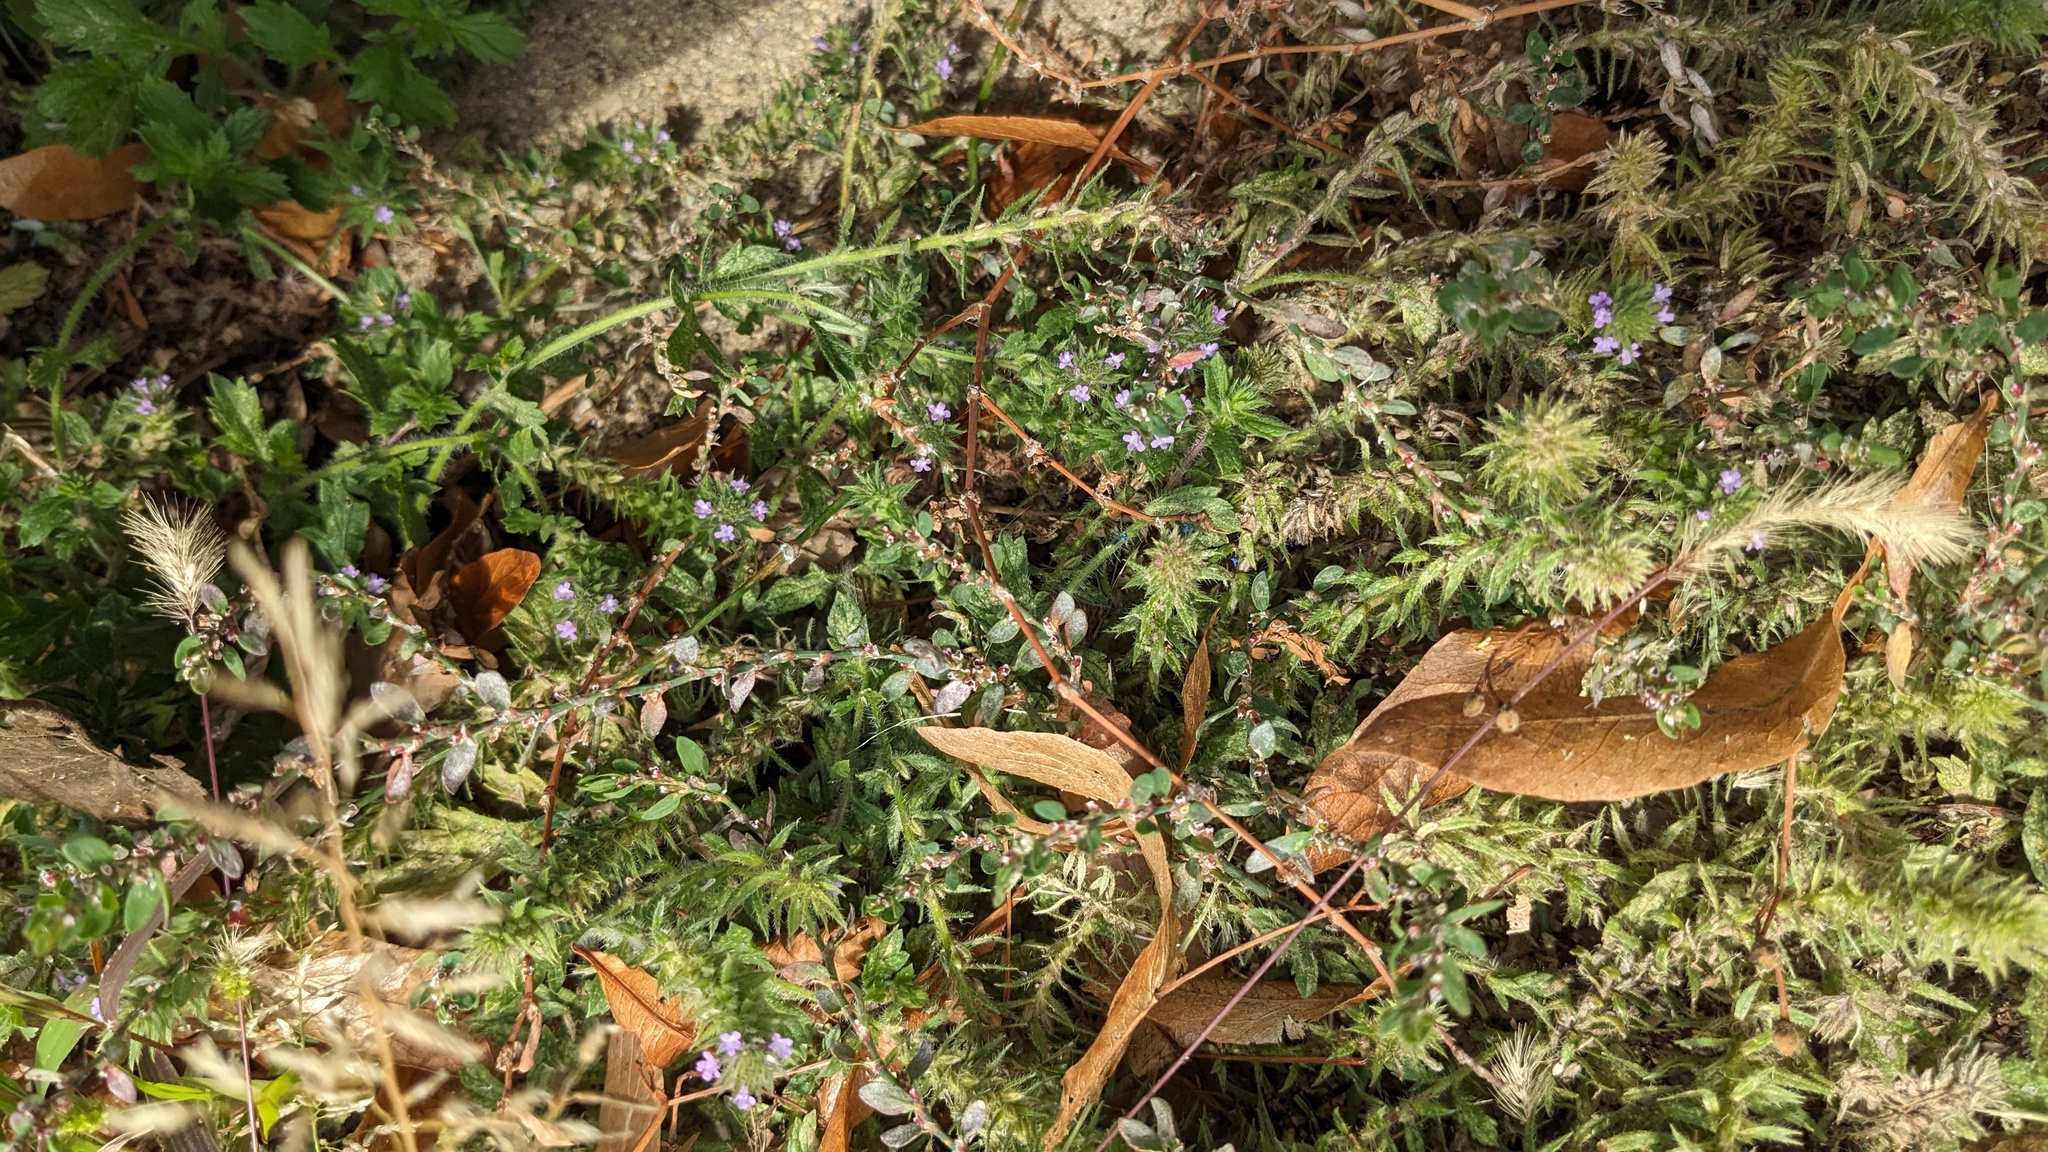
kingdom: Plantae
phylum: Tracheophyta
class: Magnoliopsida
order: Lamiales
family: Verbenaceae
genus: Verbena
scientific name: Verbena bracteata
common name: Bracted vervain
